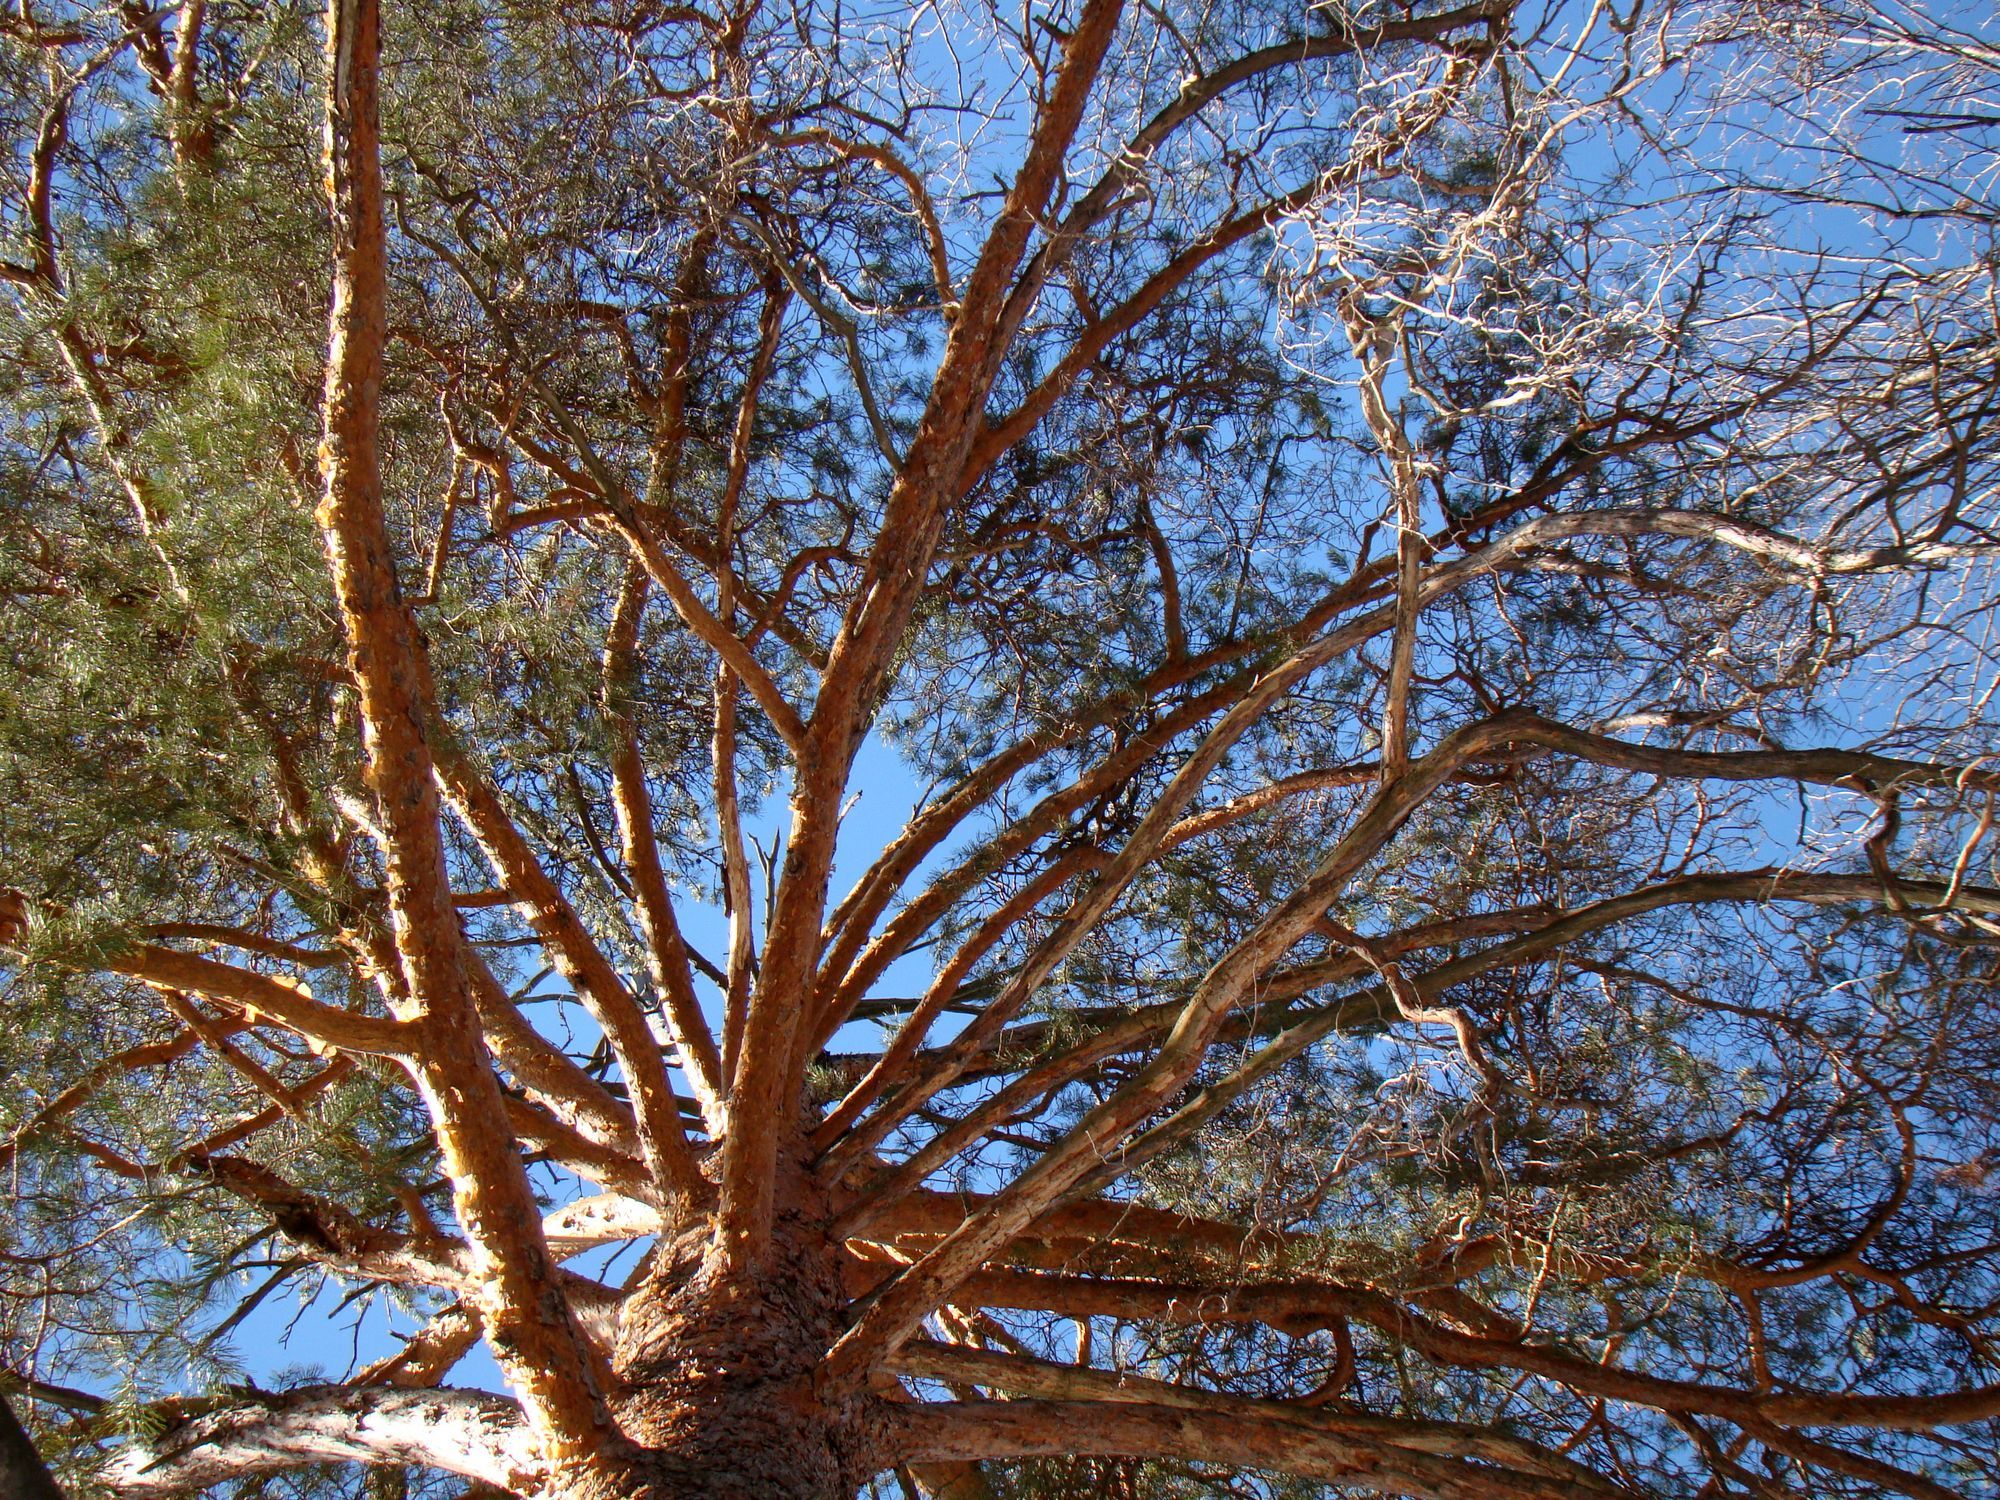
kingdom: Plantae
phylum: Tracheophyta
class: Pinopsida
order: Pinales
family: Pinaceae
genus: Pinus
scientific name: Pinus sylvestris
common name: Scots pine
